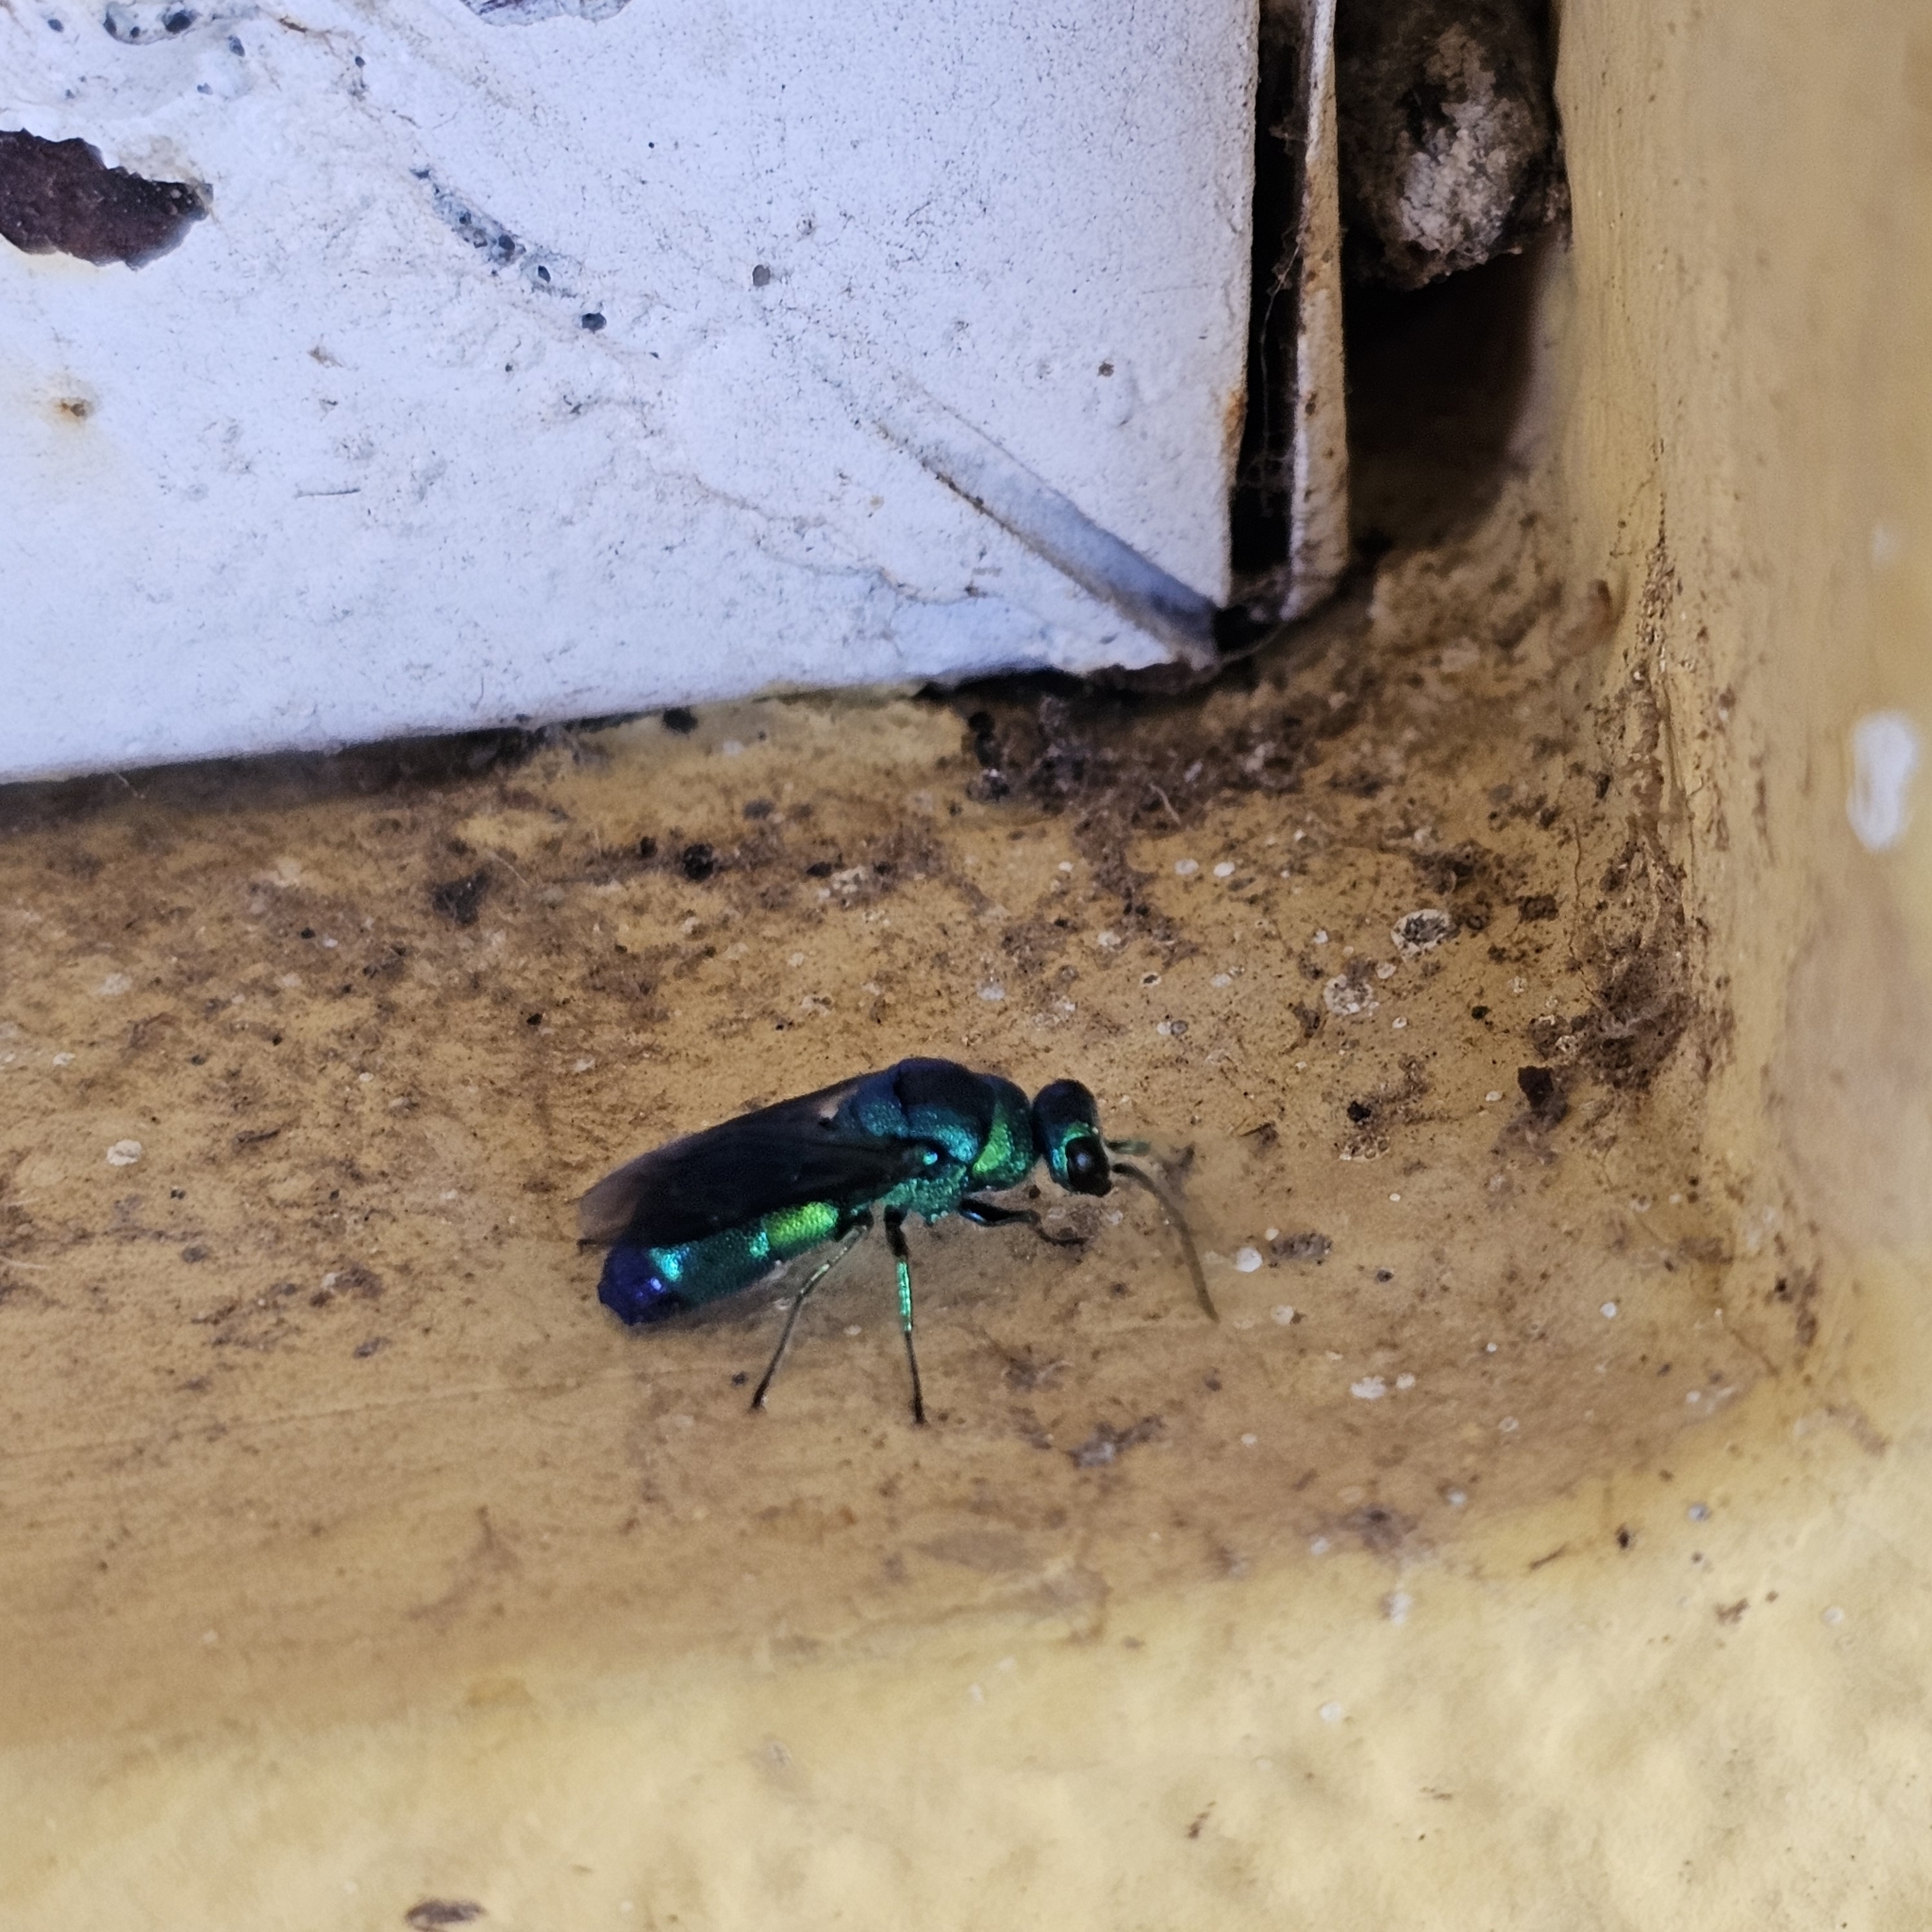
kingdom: Animalia
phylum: Arthropoda
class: Insecta
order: Hymenoptera
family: Chrysididae
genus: Chrysis
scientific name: Chrysis angolensis
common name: Cuckoo wasp
